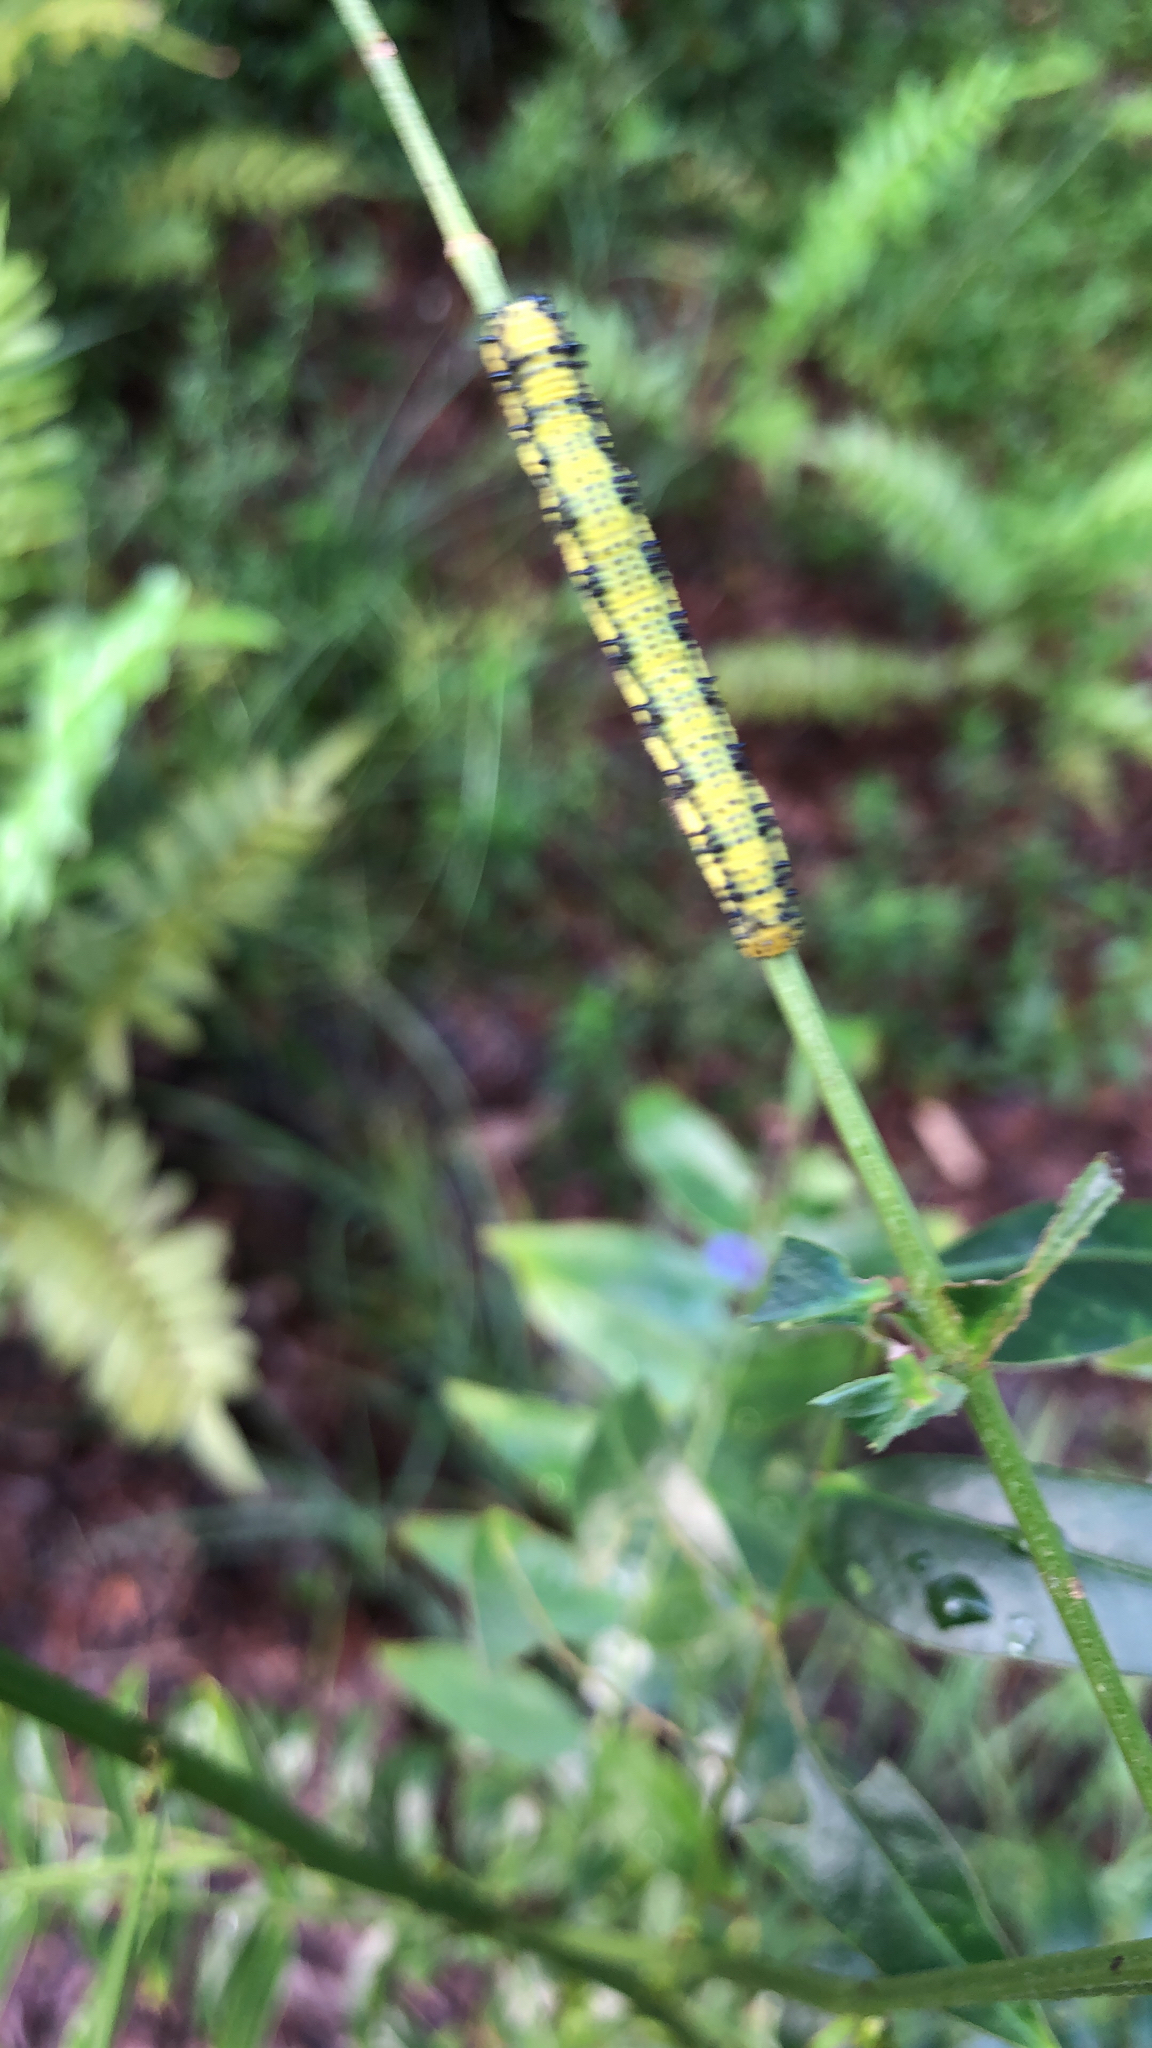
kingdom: Animalia
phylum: Arthropoda
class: Insecta
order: Lepidoptera
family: Pieridae
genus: Phoebis
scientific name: Phoebis philea
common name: Orange-barred giant sulphur
